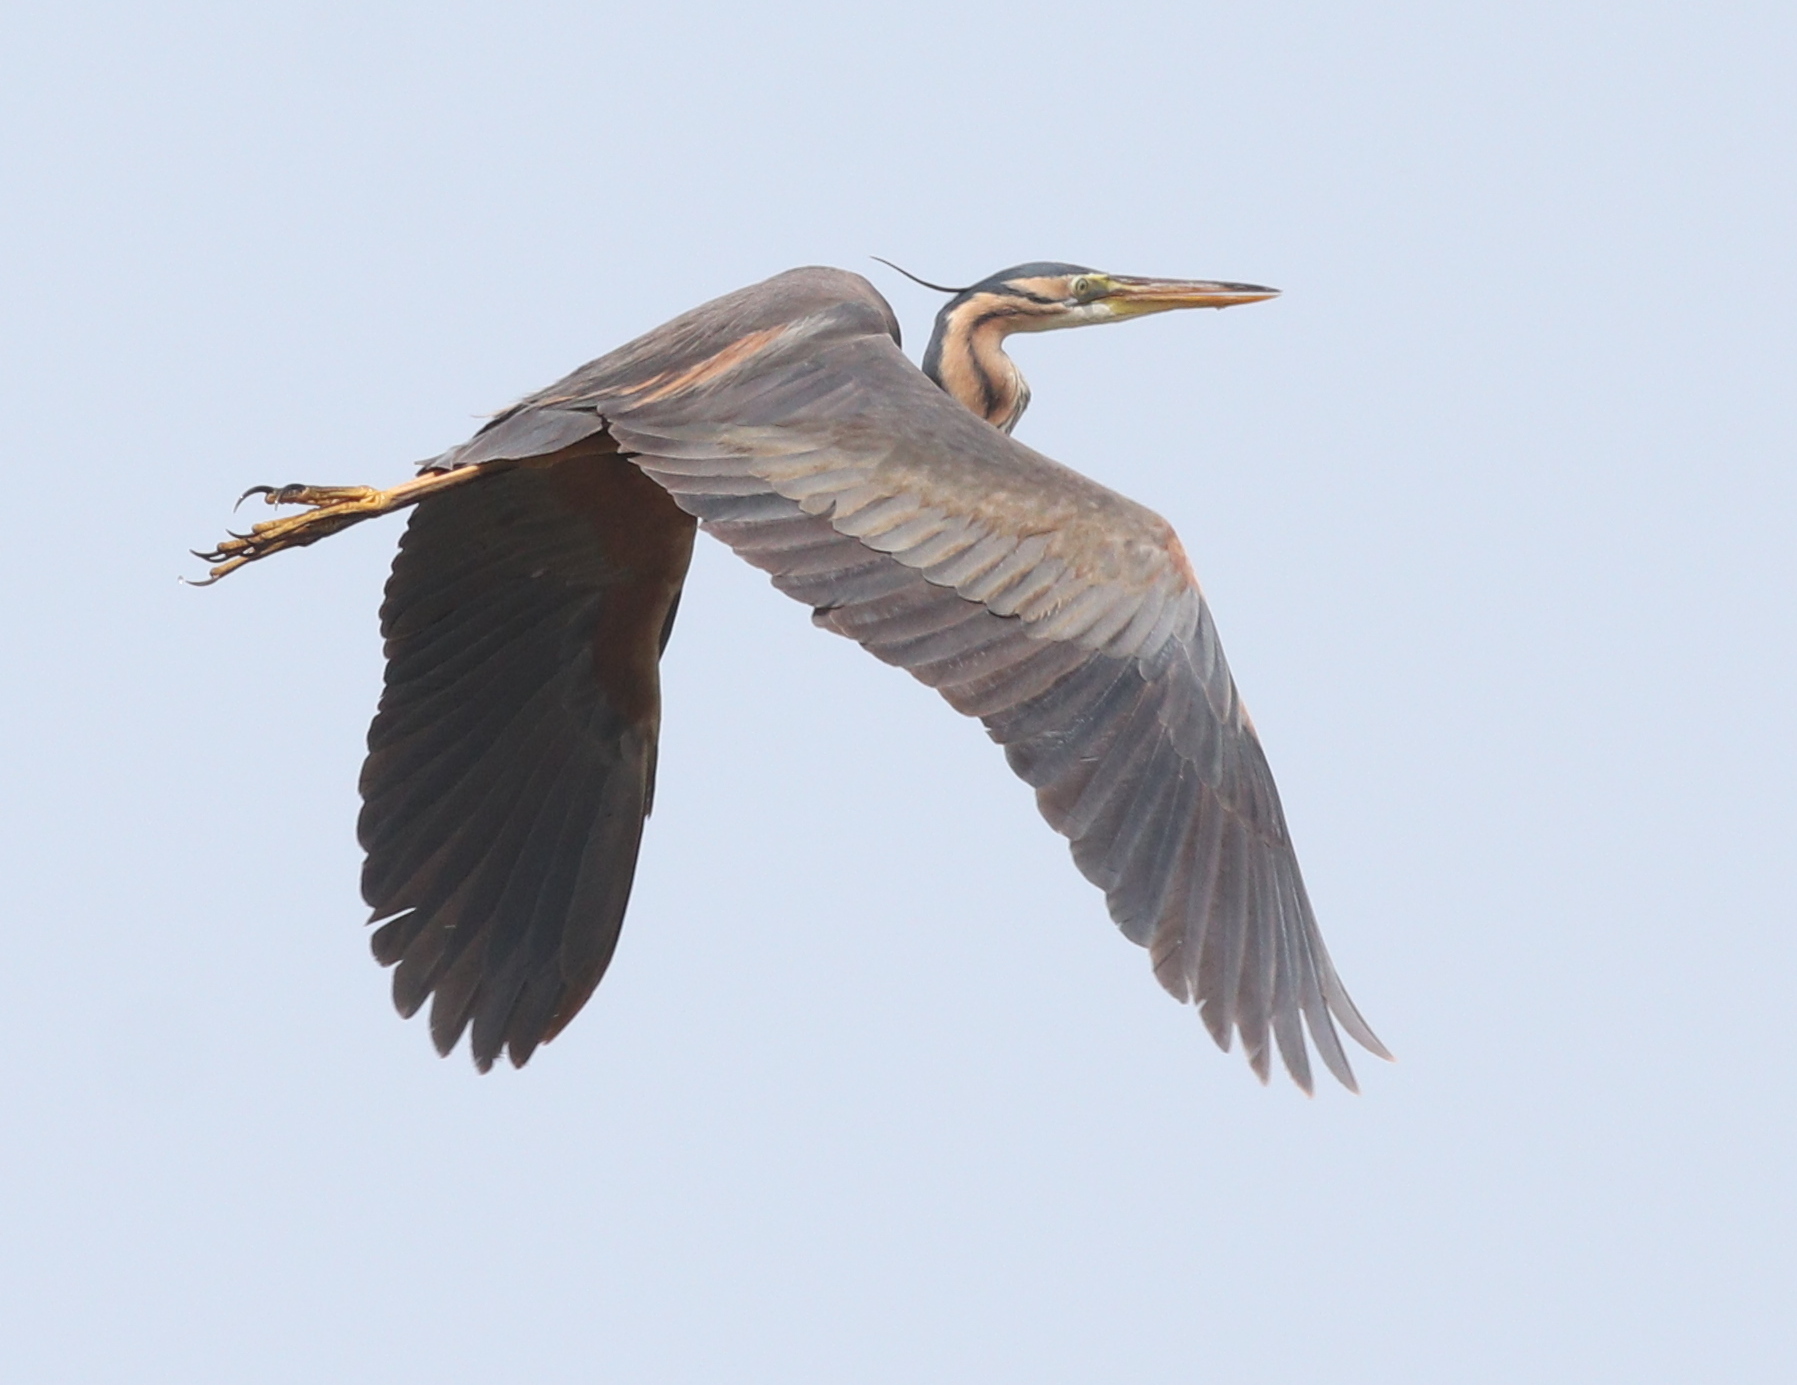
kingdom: Animalia
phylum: Chordata
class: Aves
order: Pelecaniformes
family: Ardeidae
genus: Ardea
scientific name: Ardea purpurea
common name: Purple heron
